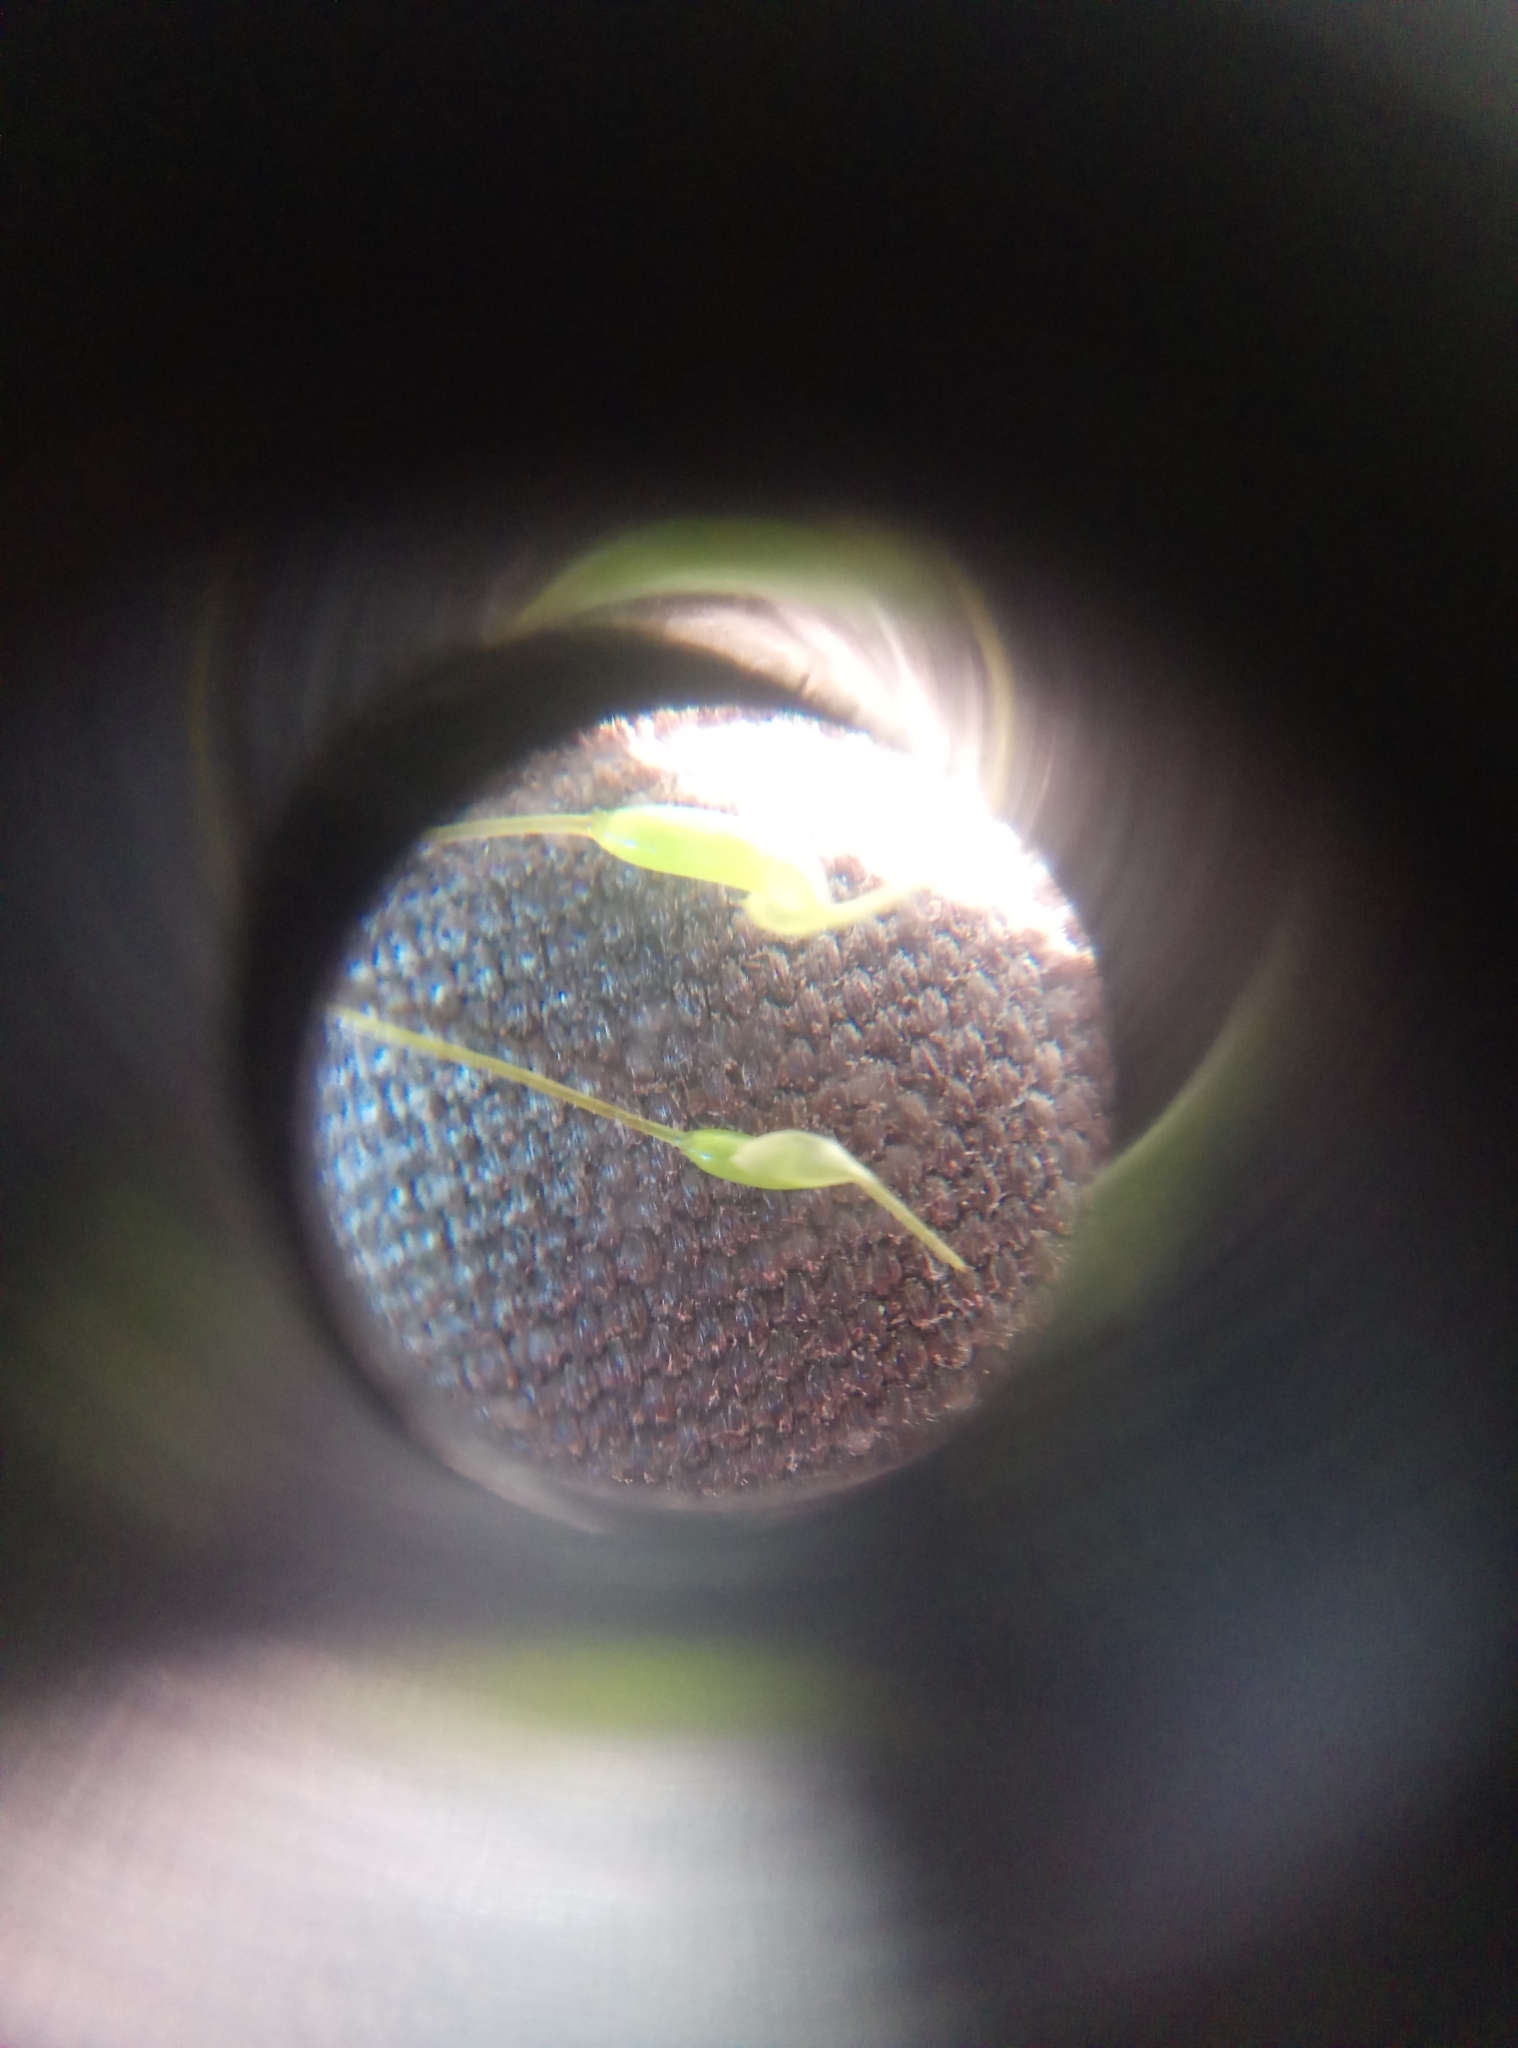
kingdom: Plantae
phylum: Bryophyta
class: Bryopsida
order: Hypnales
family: Hypnaceae
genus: Hypnum
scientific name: Hypnum cupressiforme
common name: Cypress-leaved plait-moss
